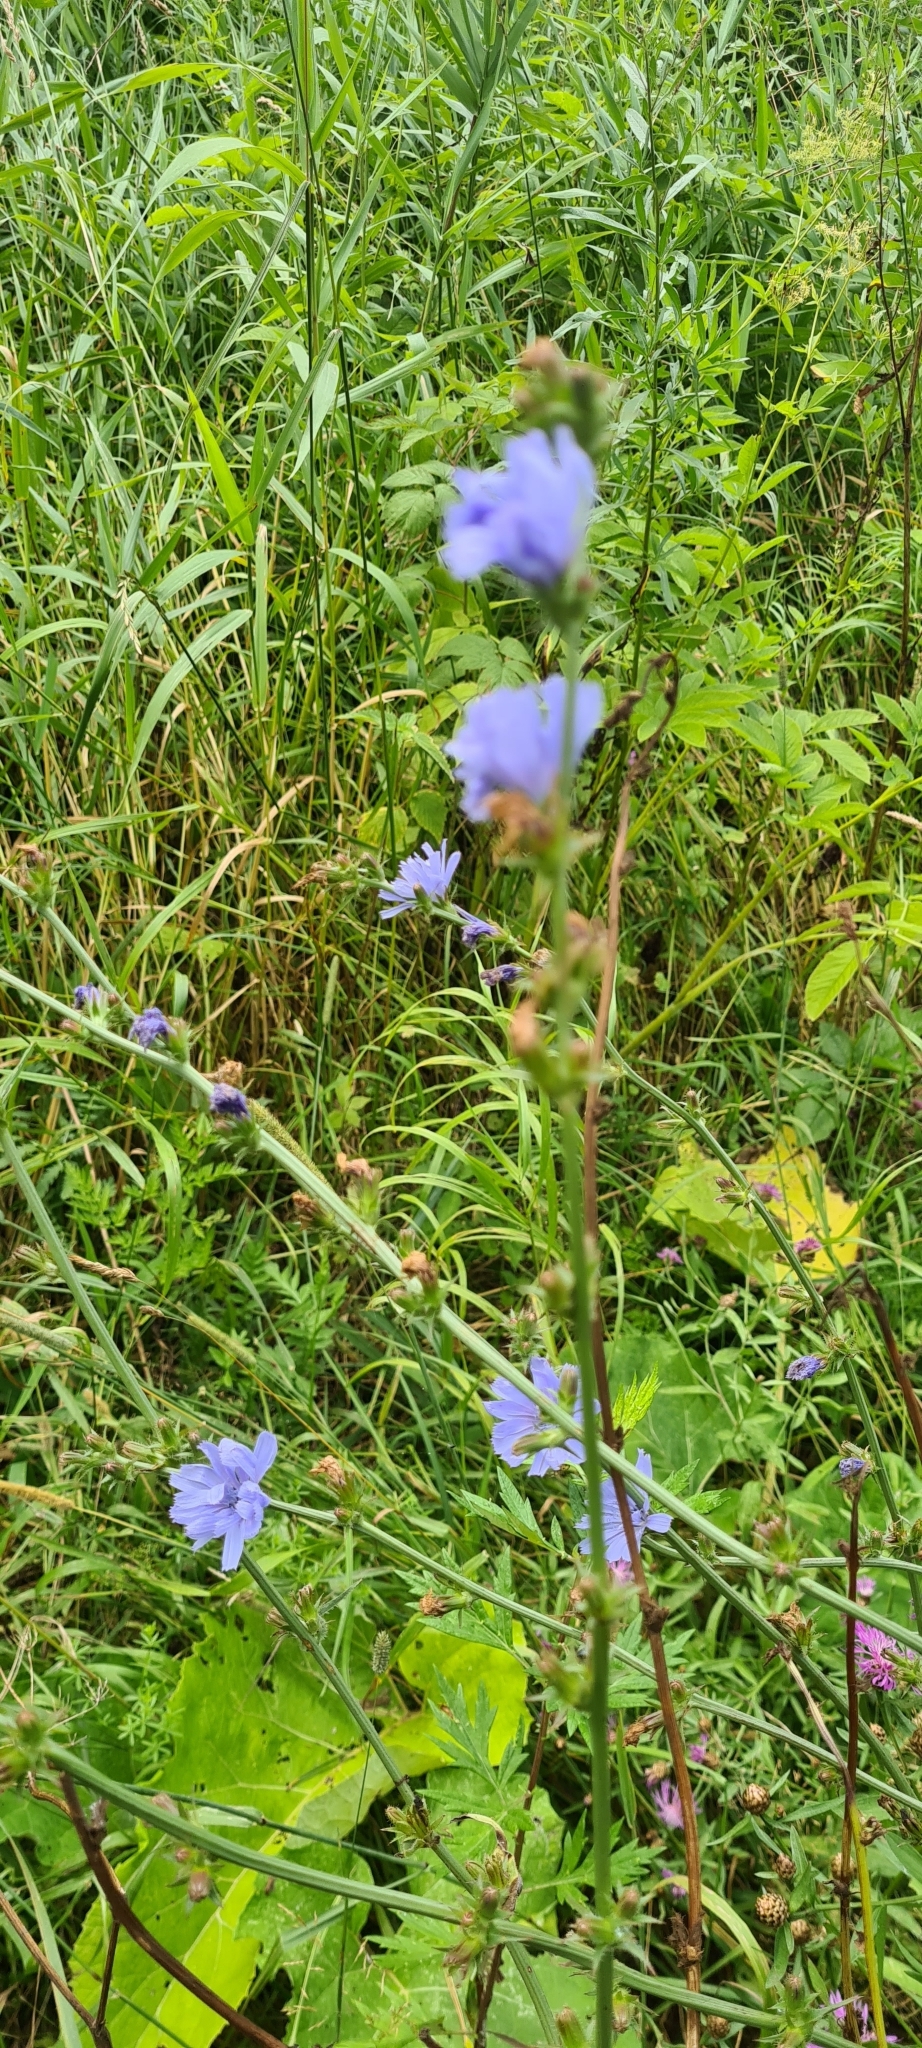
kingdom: Plantae
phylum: Tracheophyta
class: Magnoliopsida
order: Asterales
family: Asteraceae
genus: Cichorium
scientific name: Cichorium intybus
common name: Chicory
